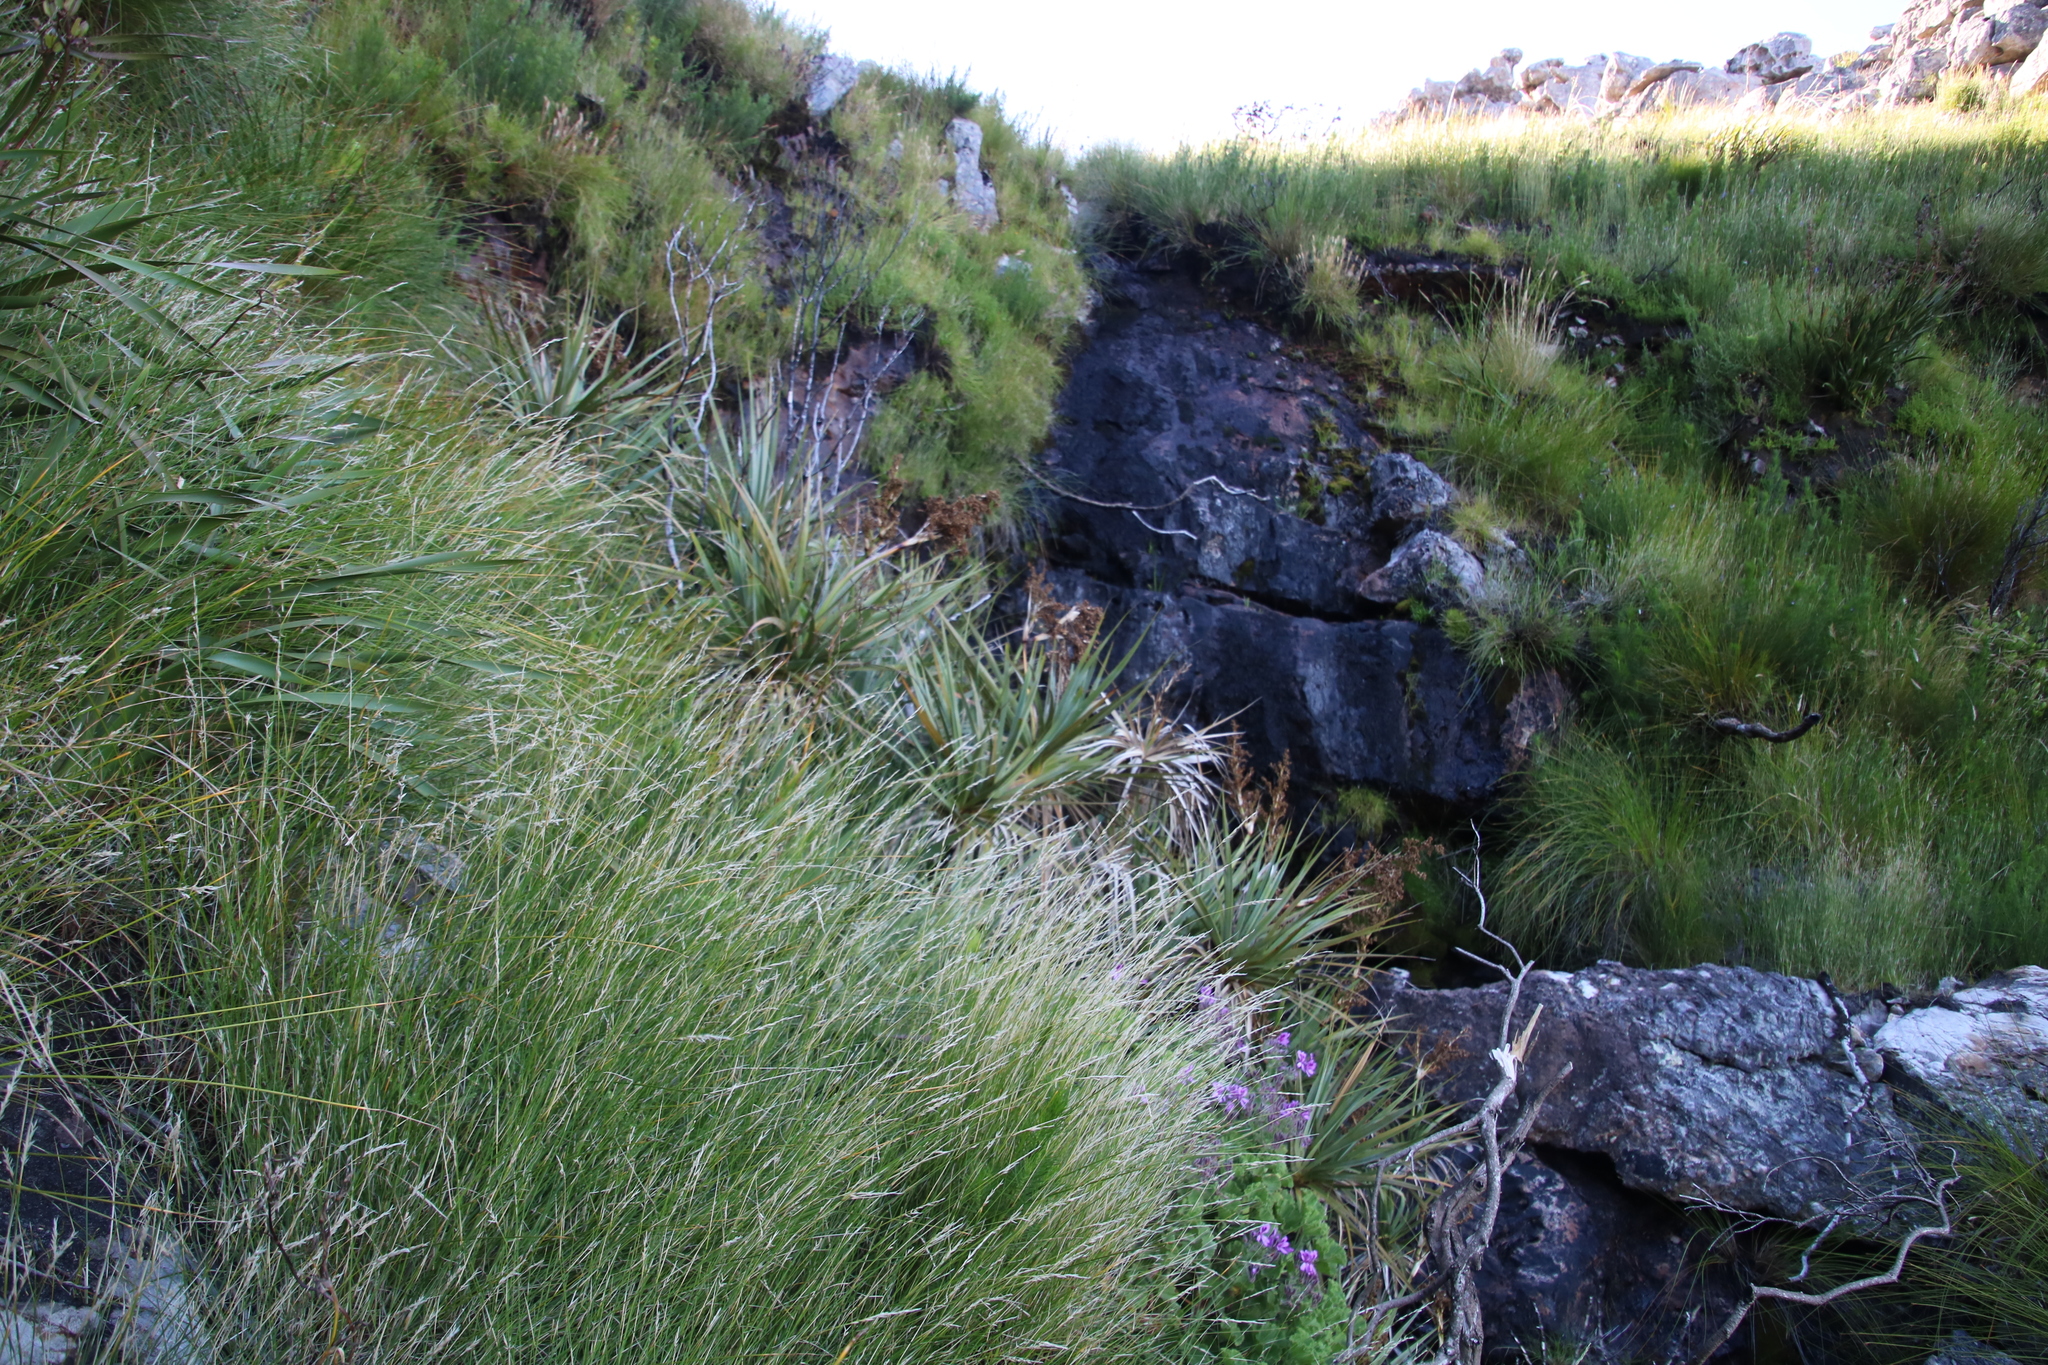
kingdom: Plantae
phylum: Tracheophyta
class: Liliopsida
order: Poales
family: Thurniaceae
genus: Prionium
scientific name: Prionium serratum
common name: Palmiet
